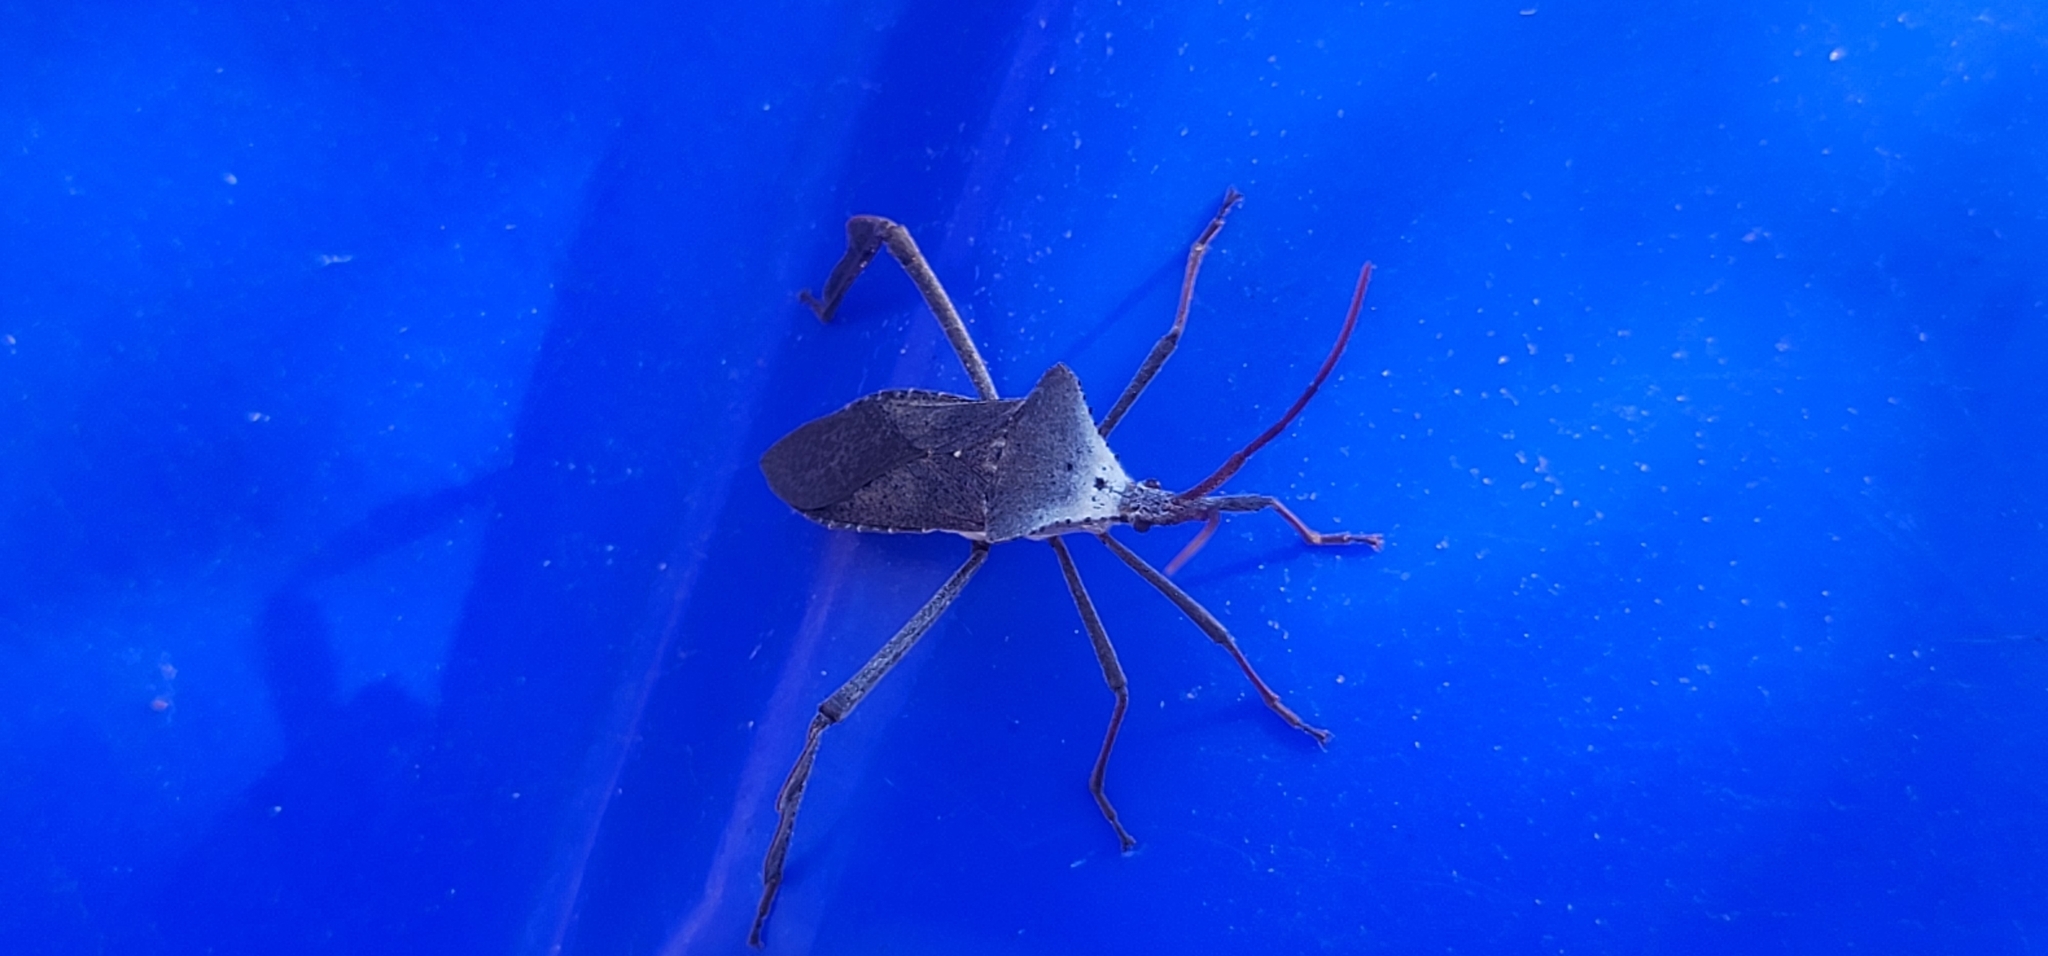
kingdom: Animalia
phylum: Arthropoda
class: Insecta
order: Hemiptera
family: Coreidae
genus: Acanthocephala
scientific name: Acanthocephala declivis
